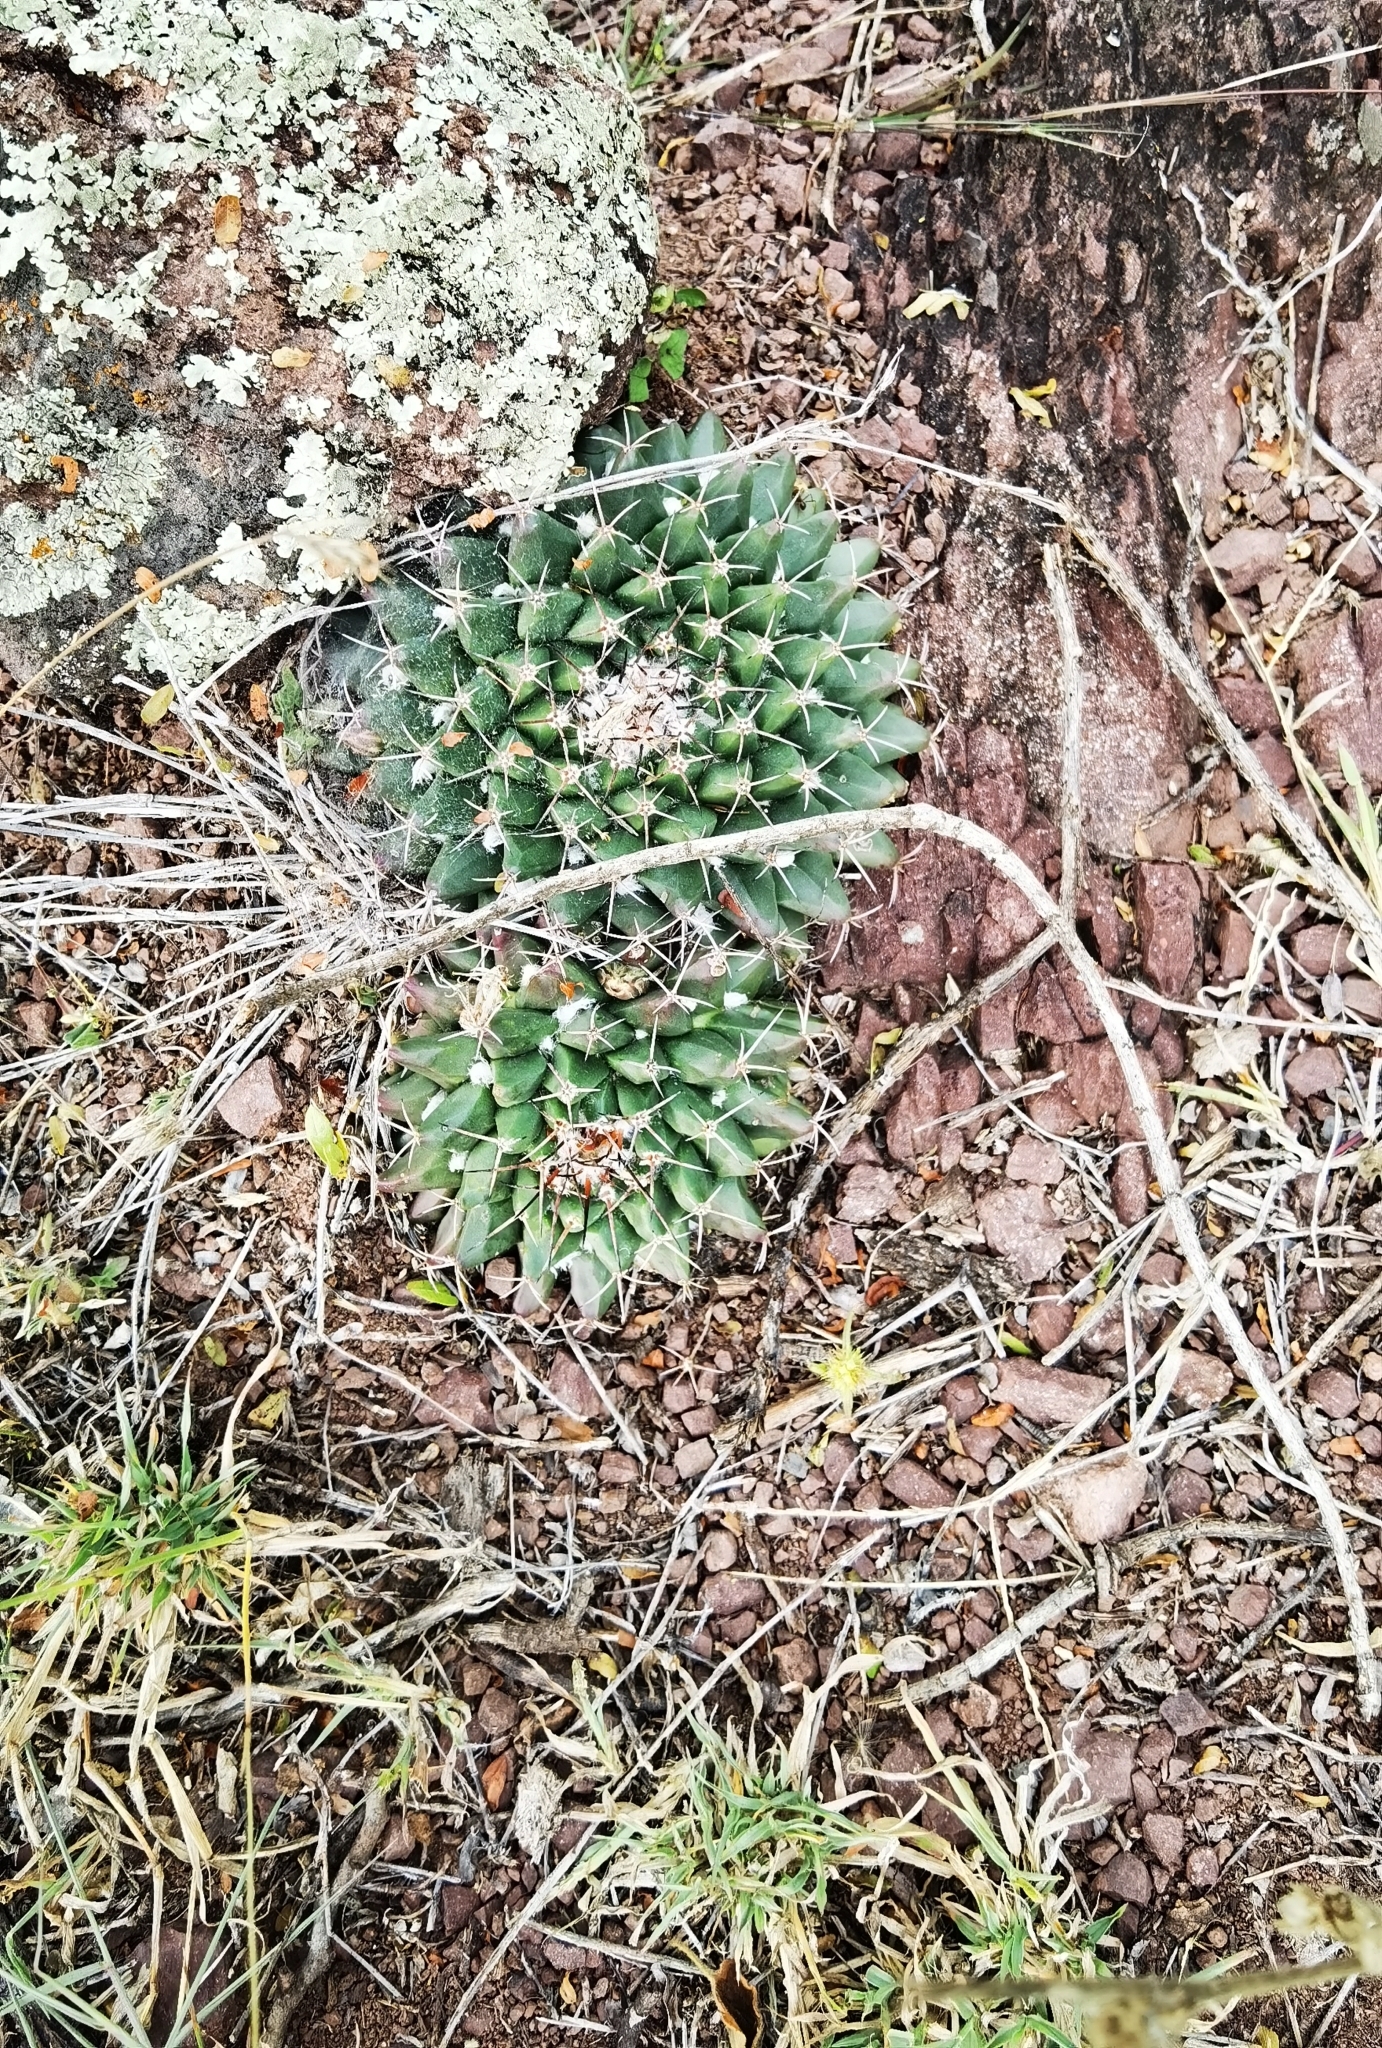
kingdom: Plantae
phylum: Tracheophyta
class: Magnoliopsida
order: Caryophyllales
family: Cactaceae
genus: Mammillaria
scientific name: Mammillaria roseoalba
